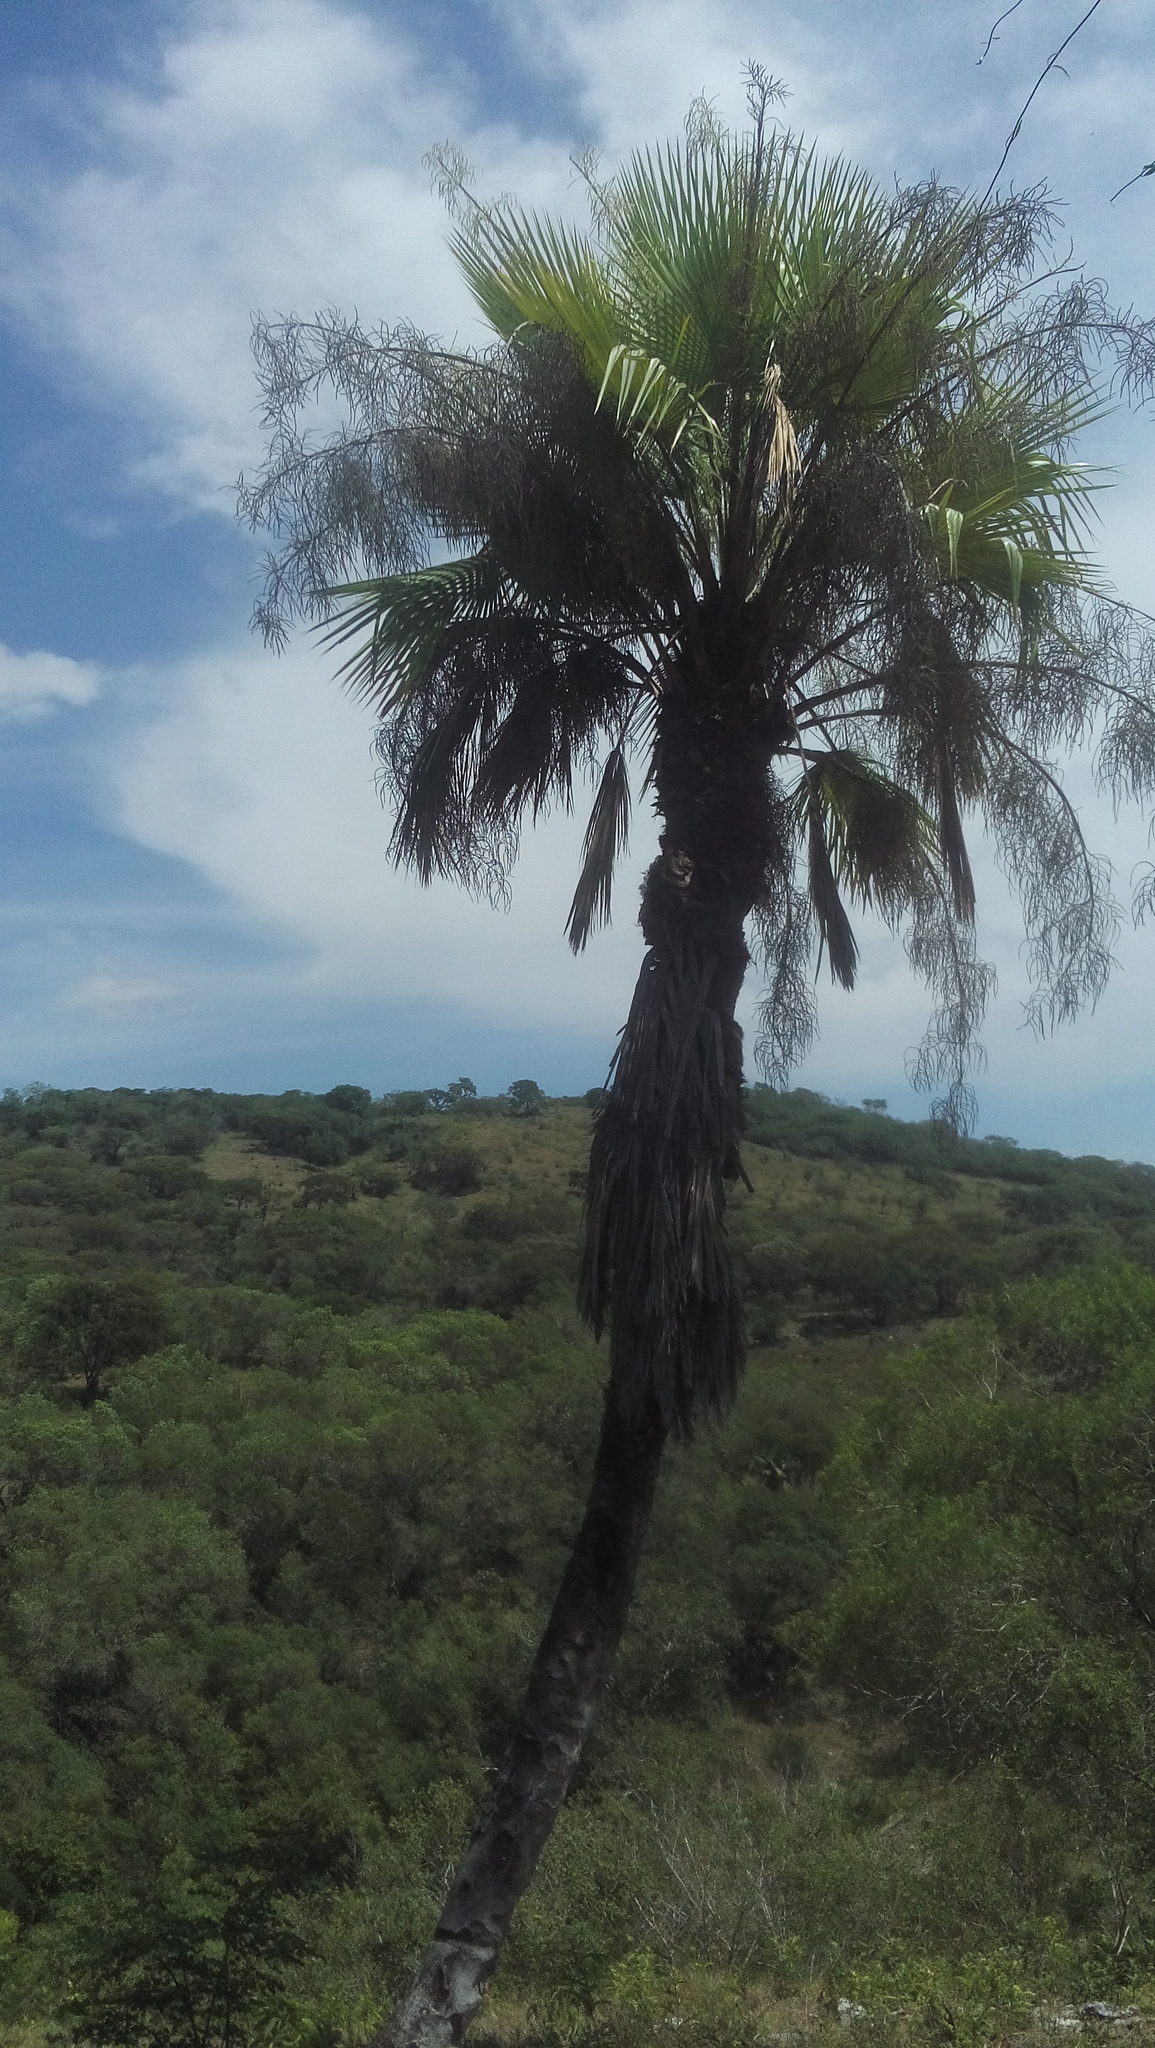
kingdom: Plantae
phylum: Tracheophyta
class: Liliopsida
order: Arecales
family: Arecaceae
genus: Brahea
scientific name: Brahea dulcis
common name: Apak palm
